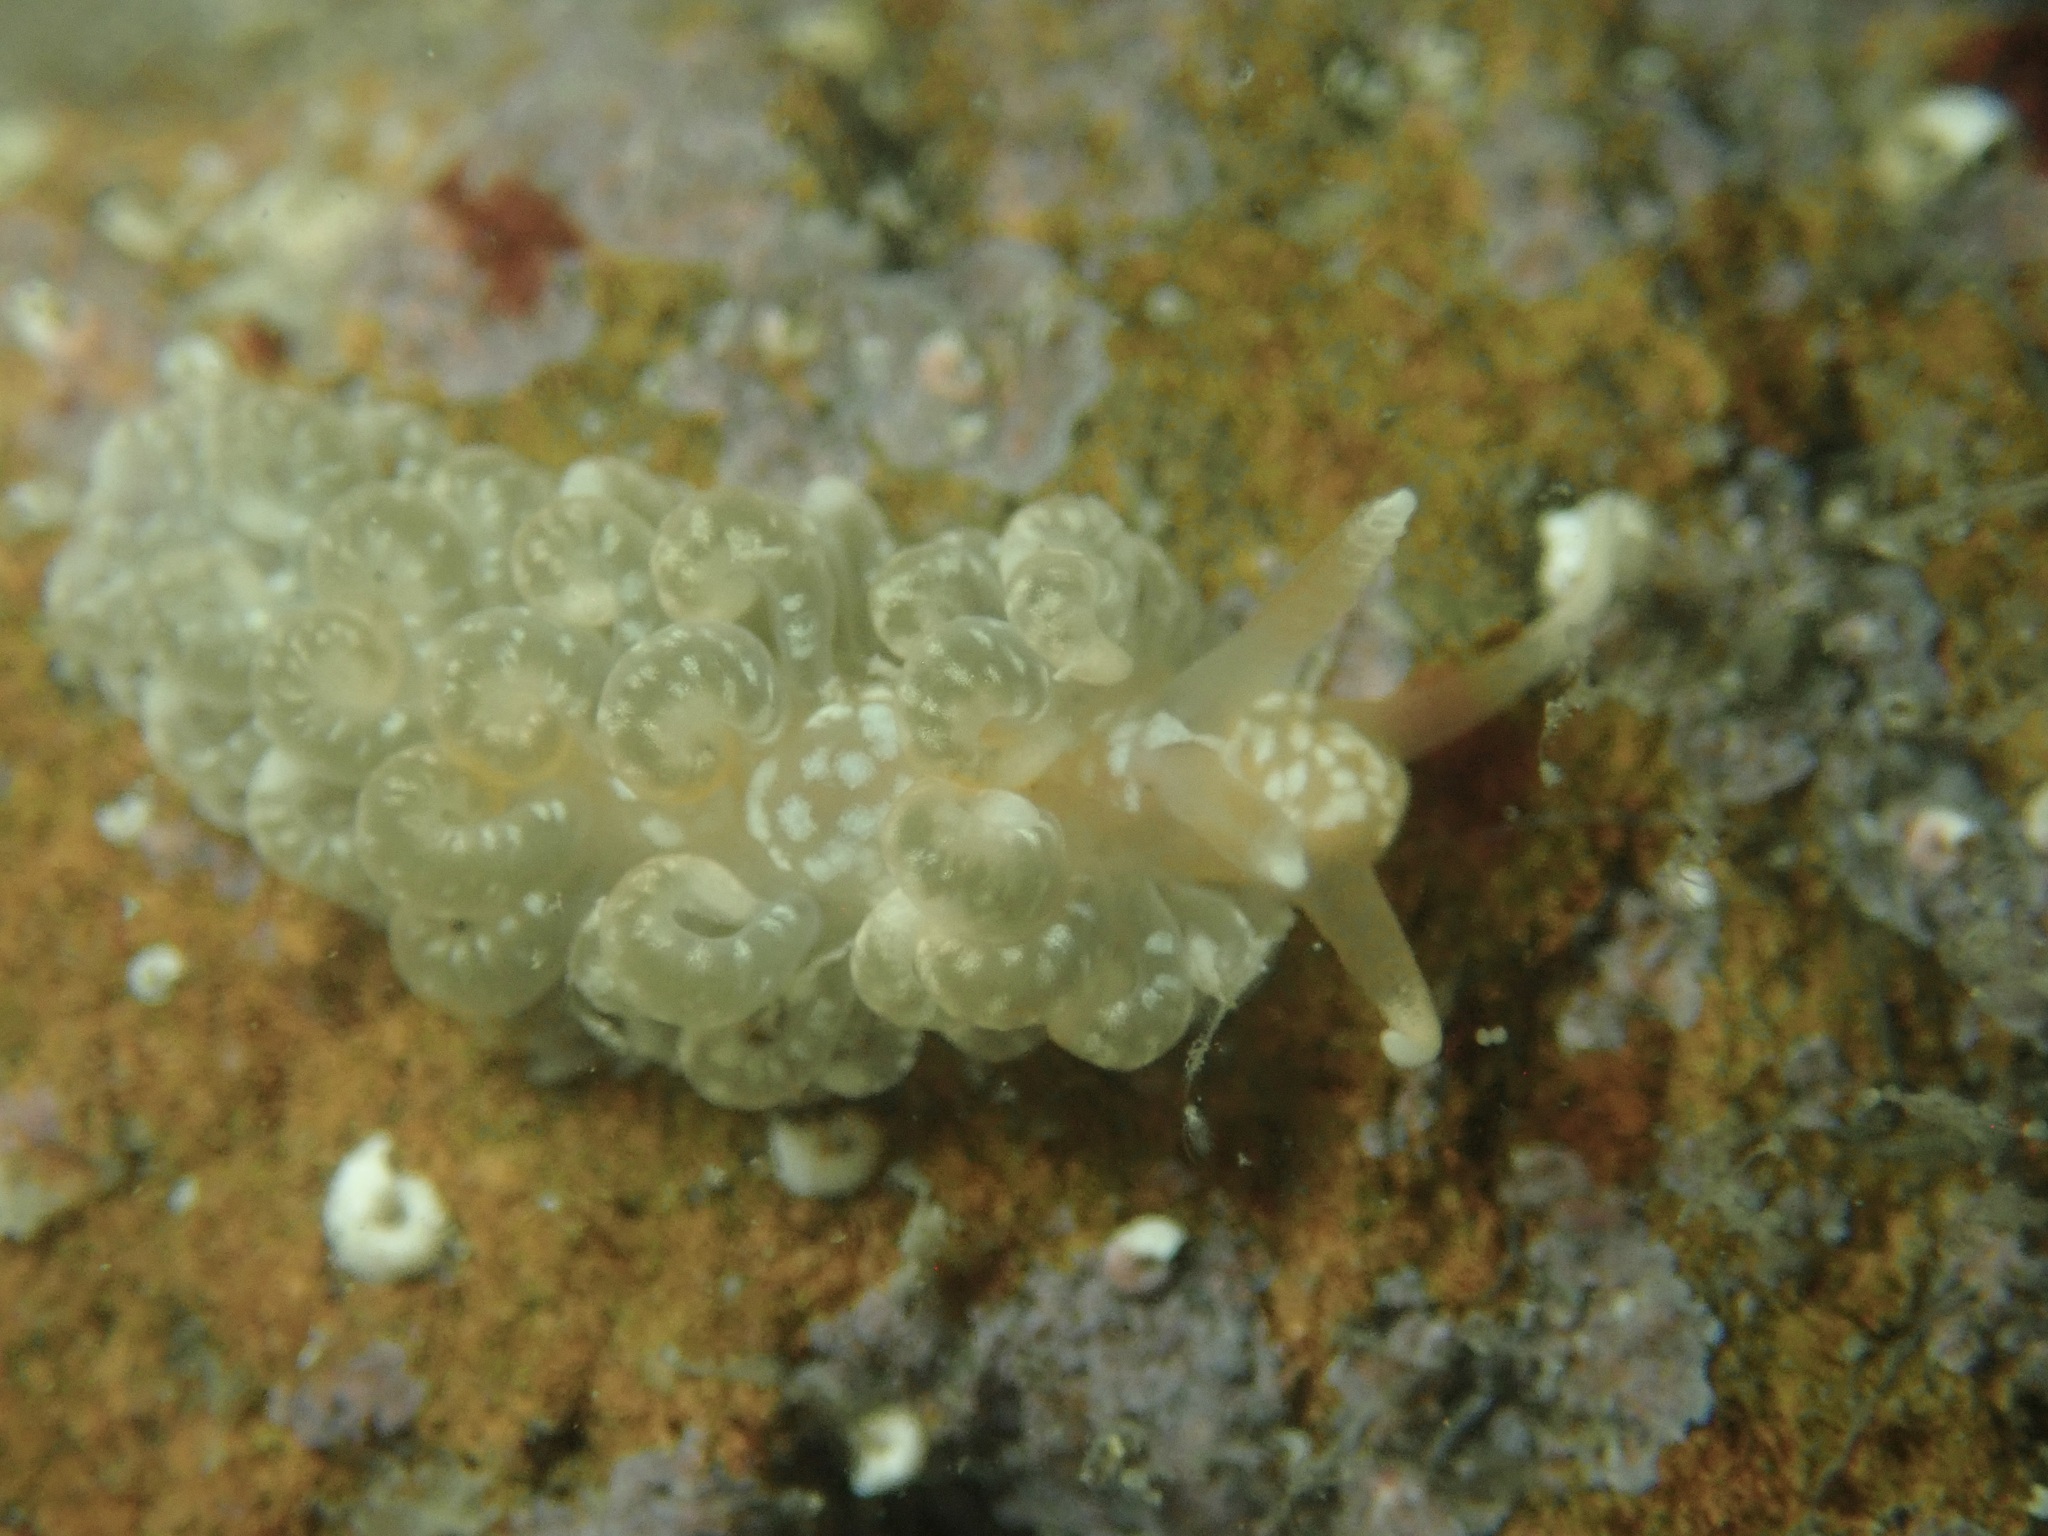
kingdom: Animalia
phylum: Mollusca
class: Gastropoda
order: Nudibranchia
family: Aeolidiidae
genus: Spurilla
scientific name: Spurilla braziliana
